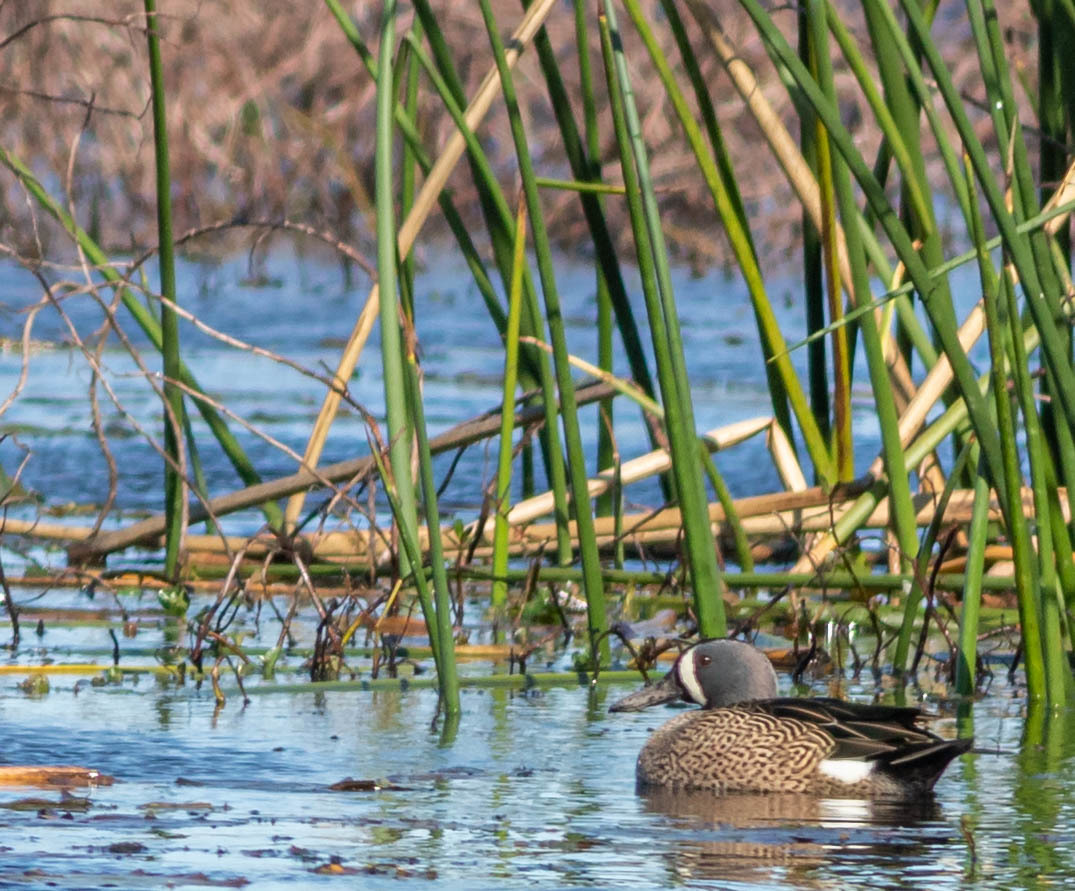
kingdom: Animalia
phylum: Chordata
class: Aves
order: Anseriformes
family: Anatidae
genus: Spatula
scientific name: Spatula discors
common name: Blue-winged teal
